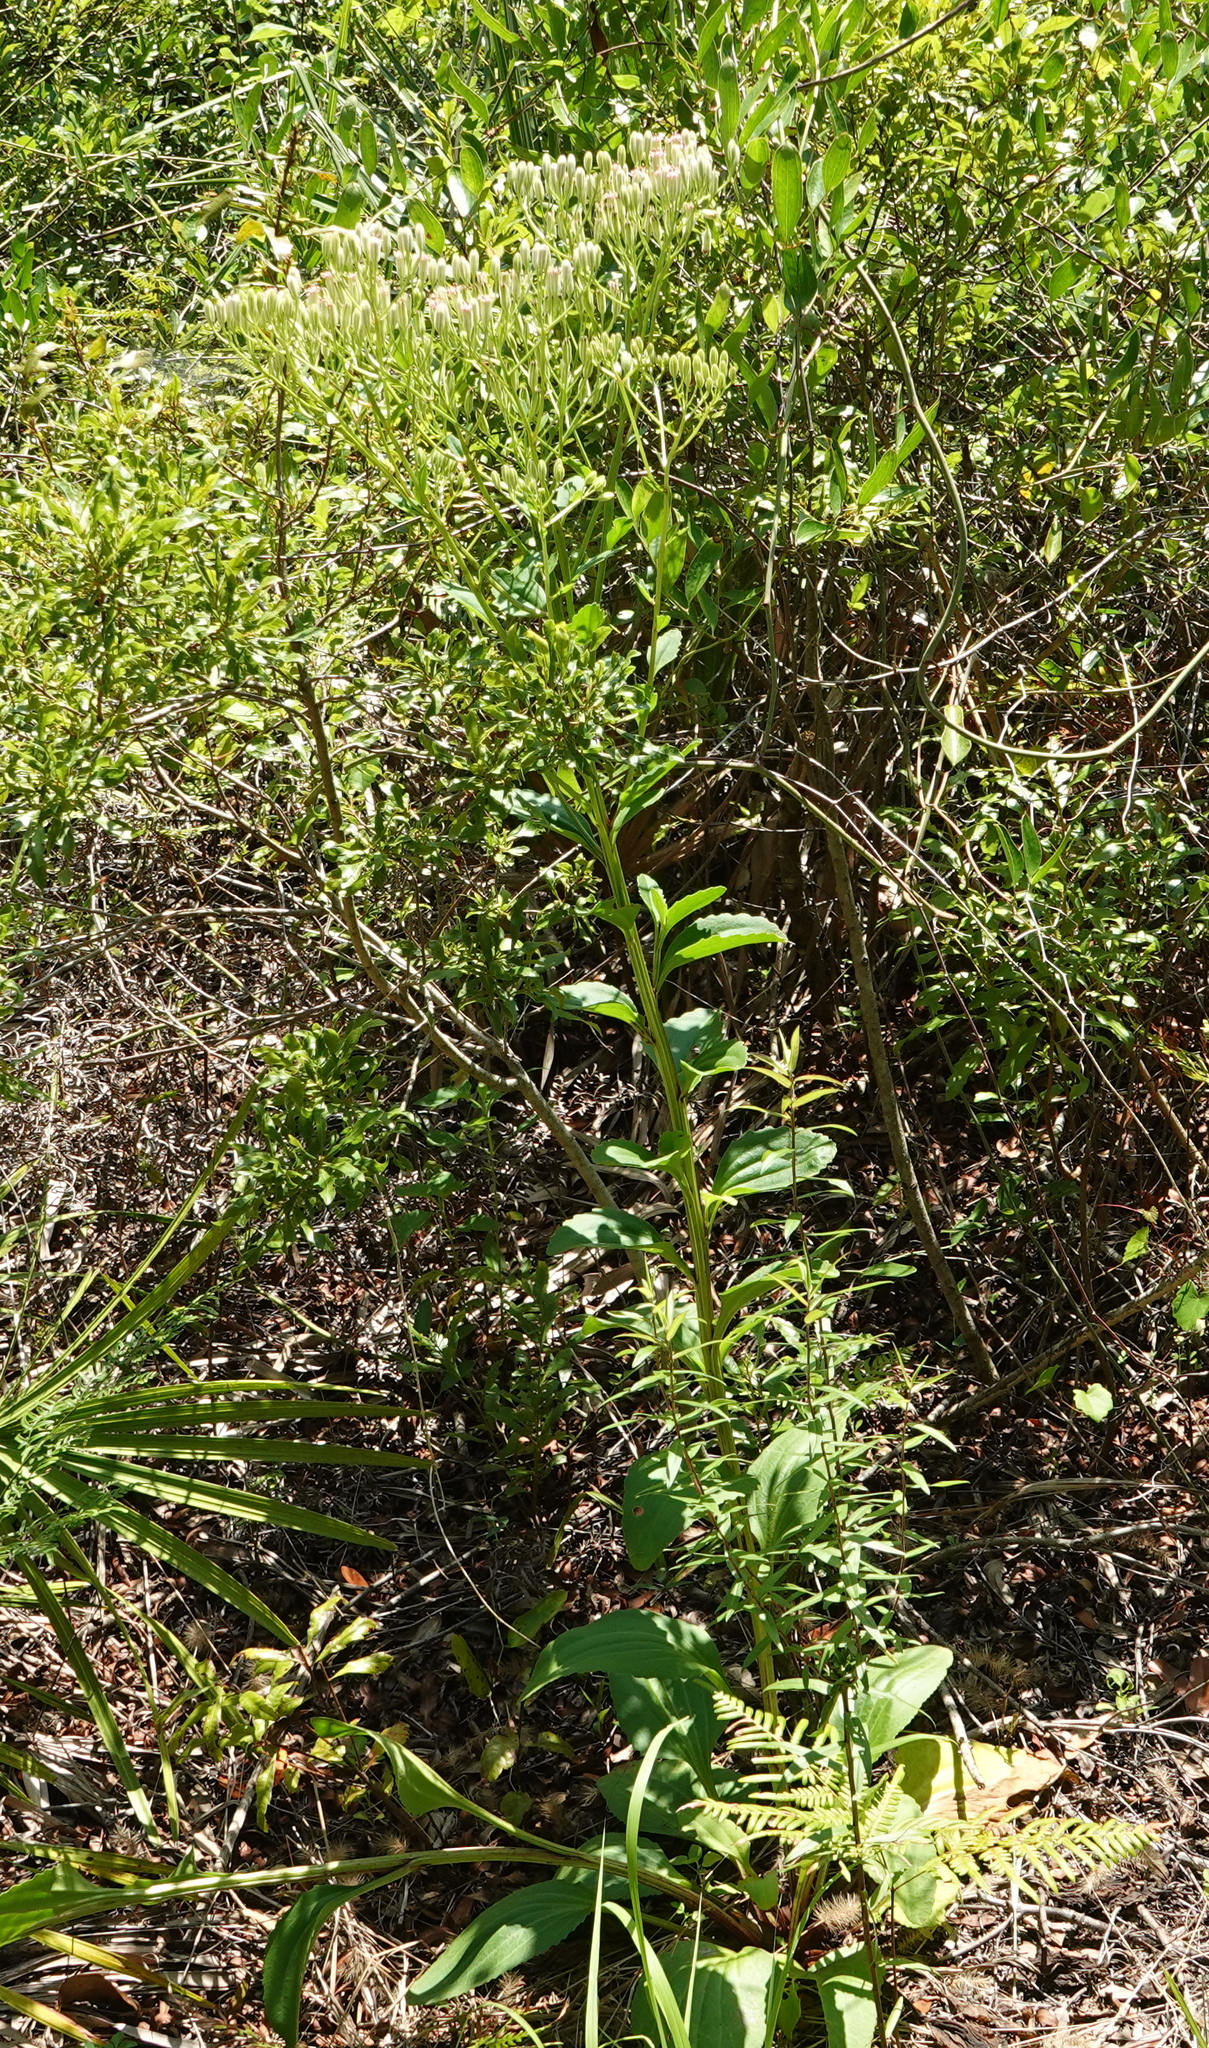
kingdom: Plantae
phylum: Tracheophyta
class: Magnoliopsida
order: Asterales
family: Asteraceae
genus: Arnoglossum
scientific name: Arnoglossum floridanum
